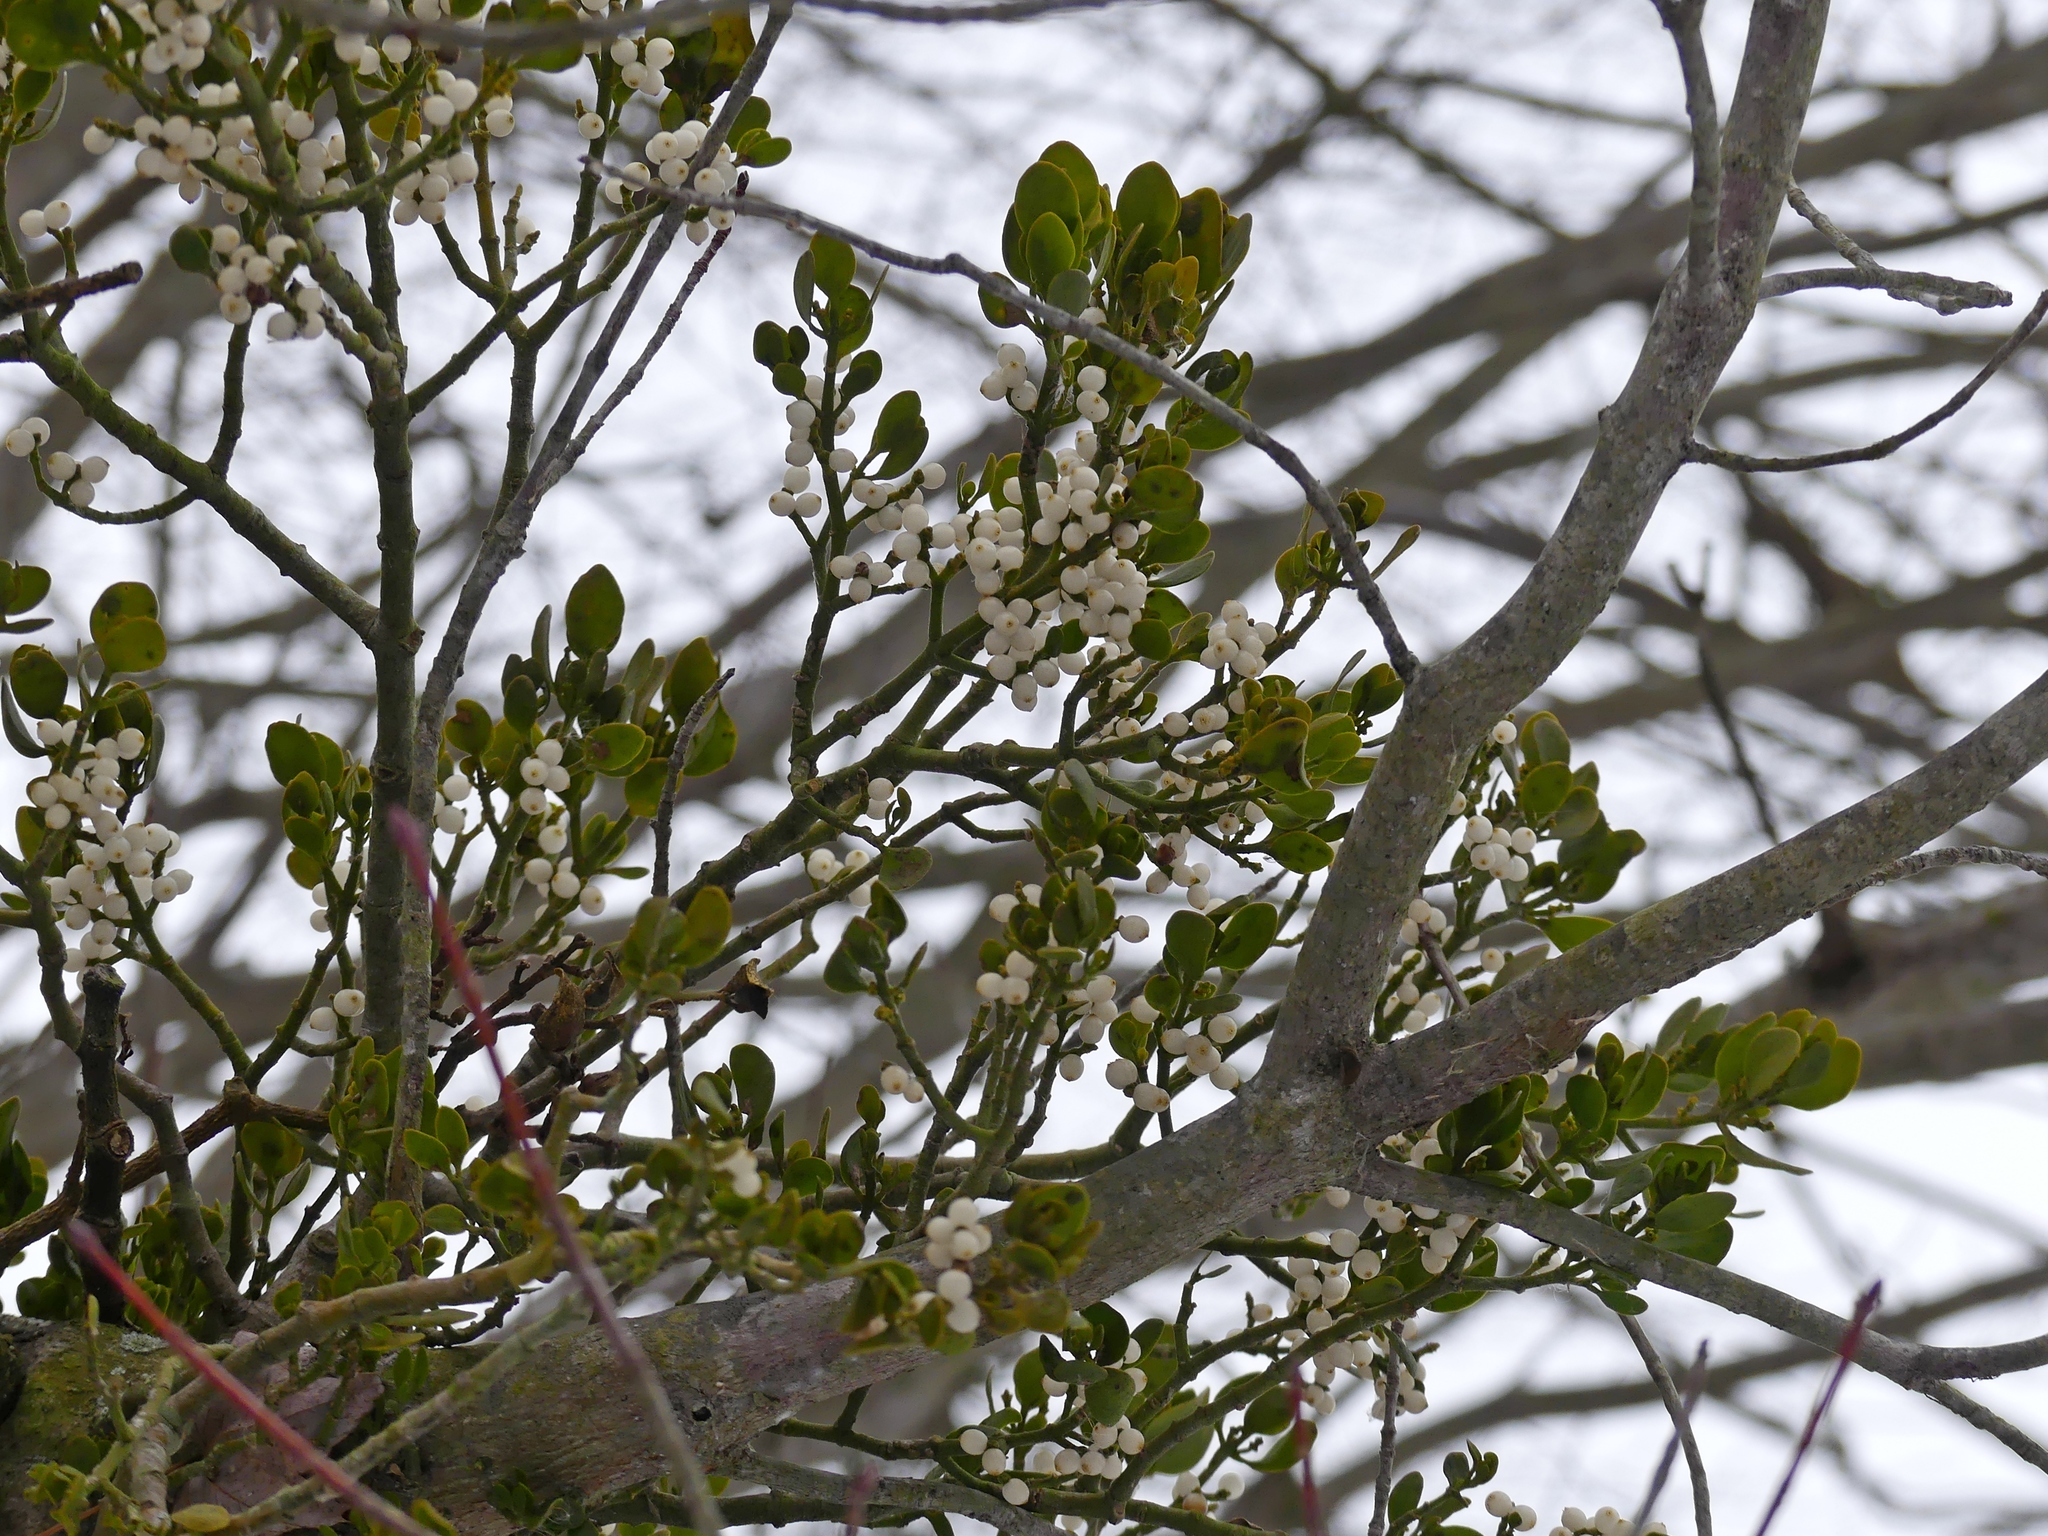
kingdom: Plantae
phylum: Tracheophyta
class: Magnoliopsida
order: Santalales
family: Viscaceae
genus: Phoradendron
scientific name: Phoradendron leucarpum
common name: Pacific mistletoe
